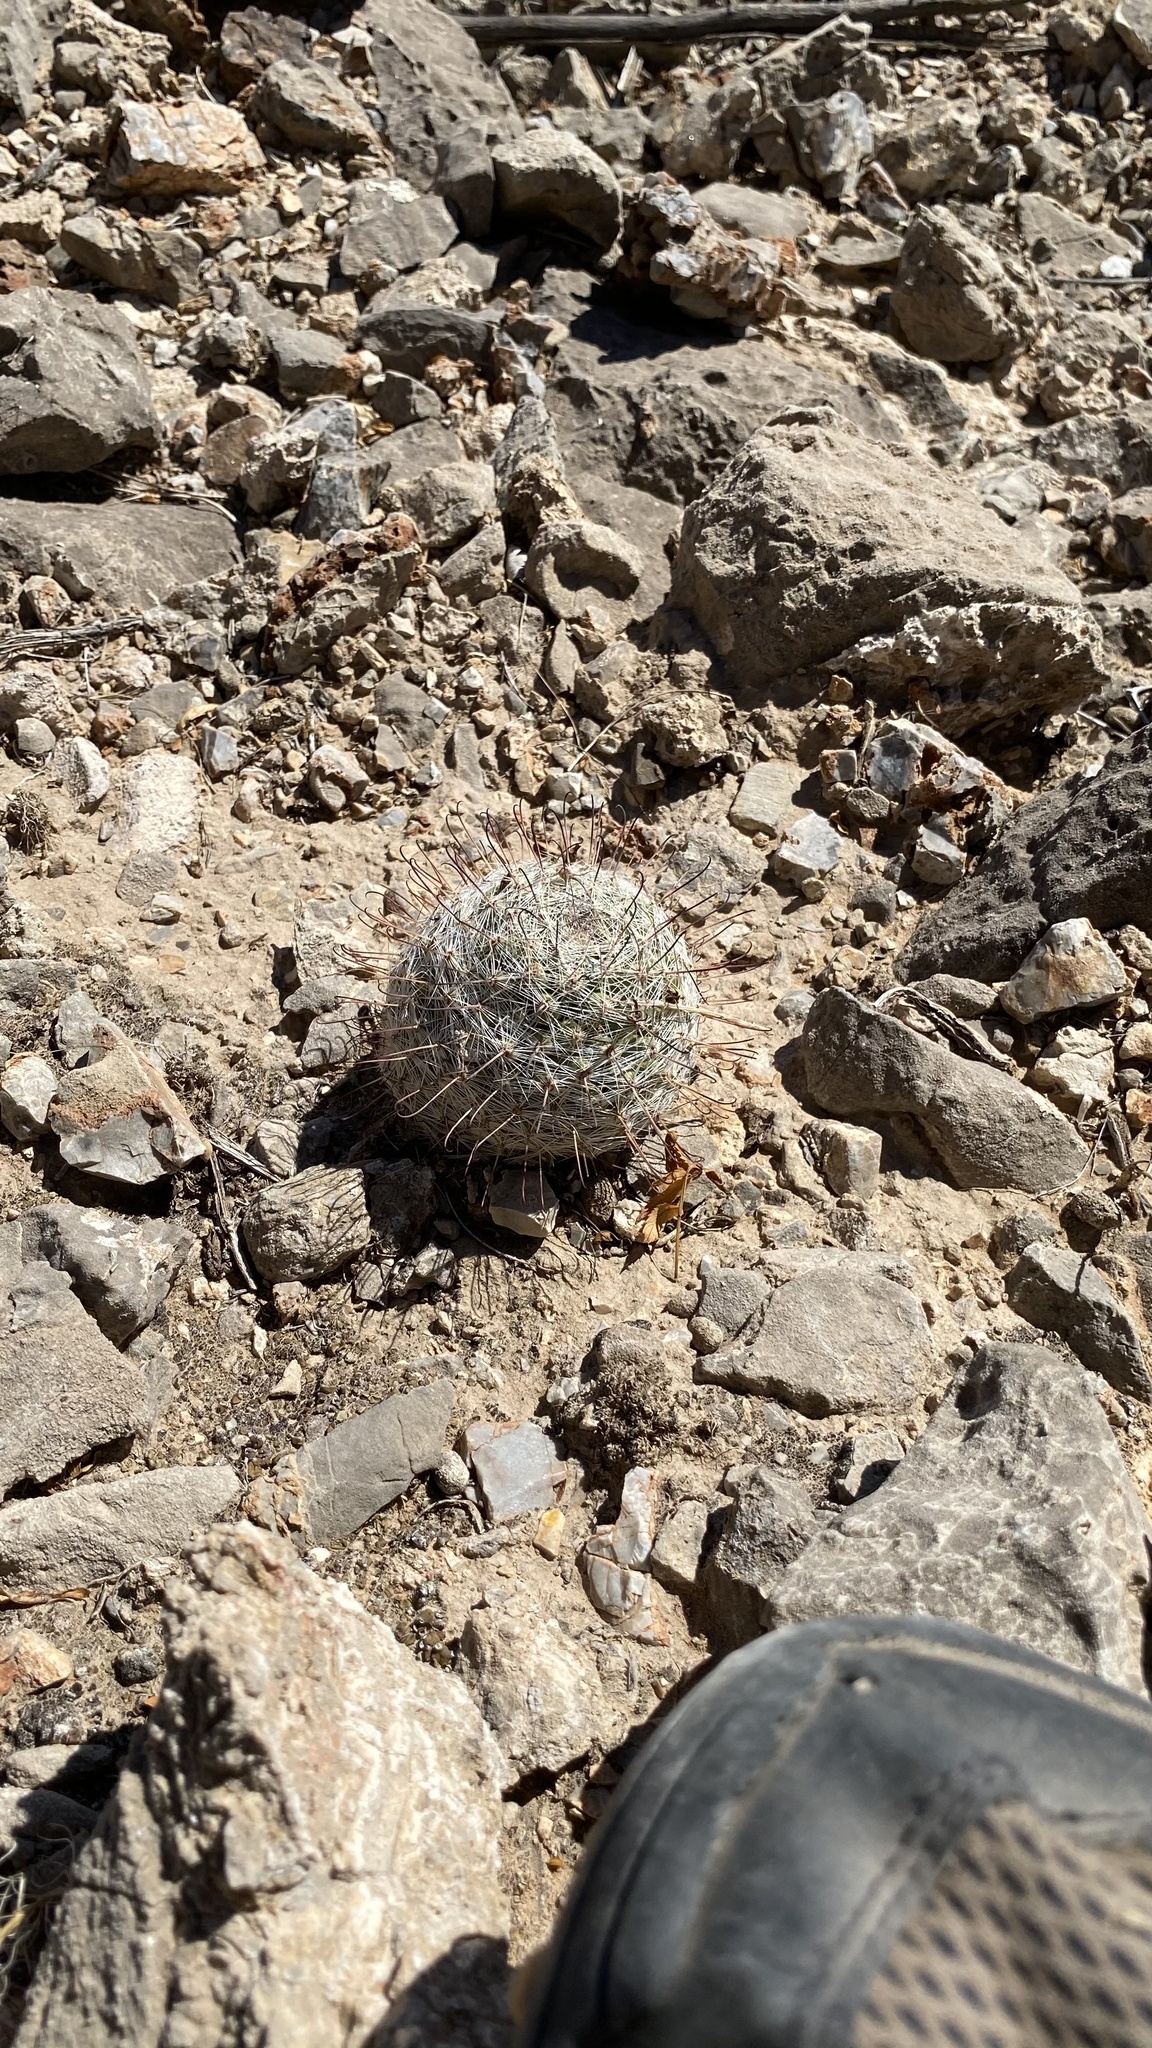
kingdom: Plantae
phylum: Tracheophyta
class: Magnoliopsida
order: Caryophyllales
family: Cactaceae
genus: Cochemiea
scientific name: Cochemiea grahamii
